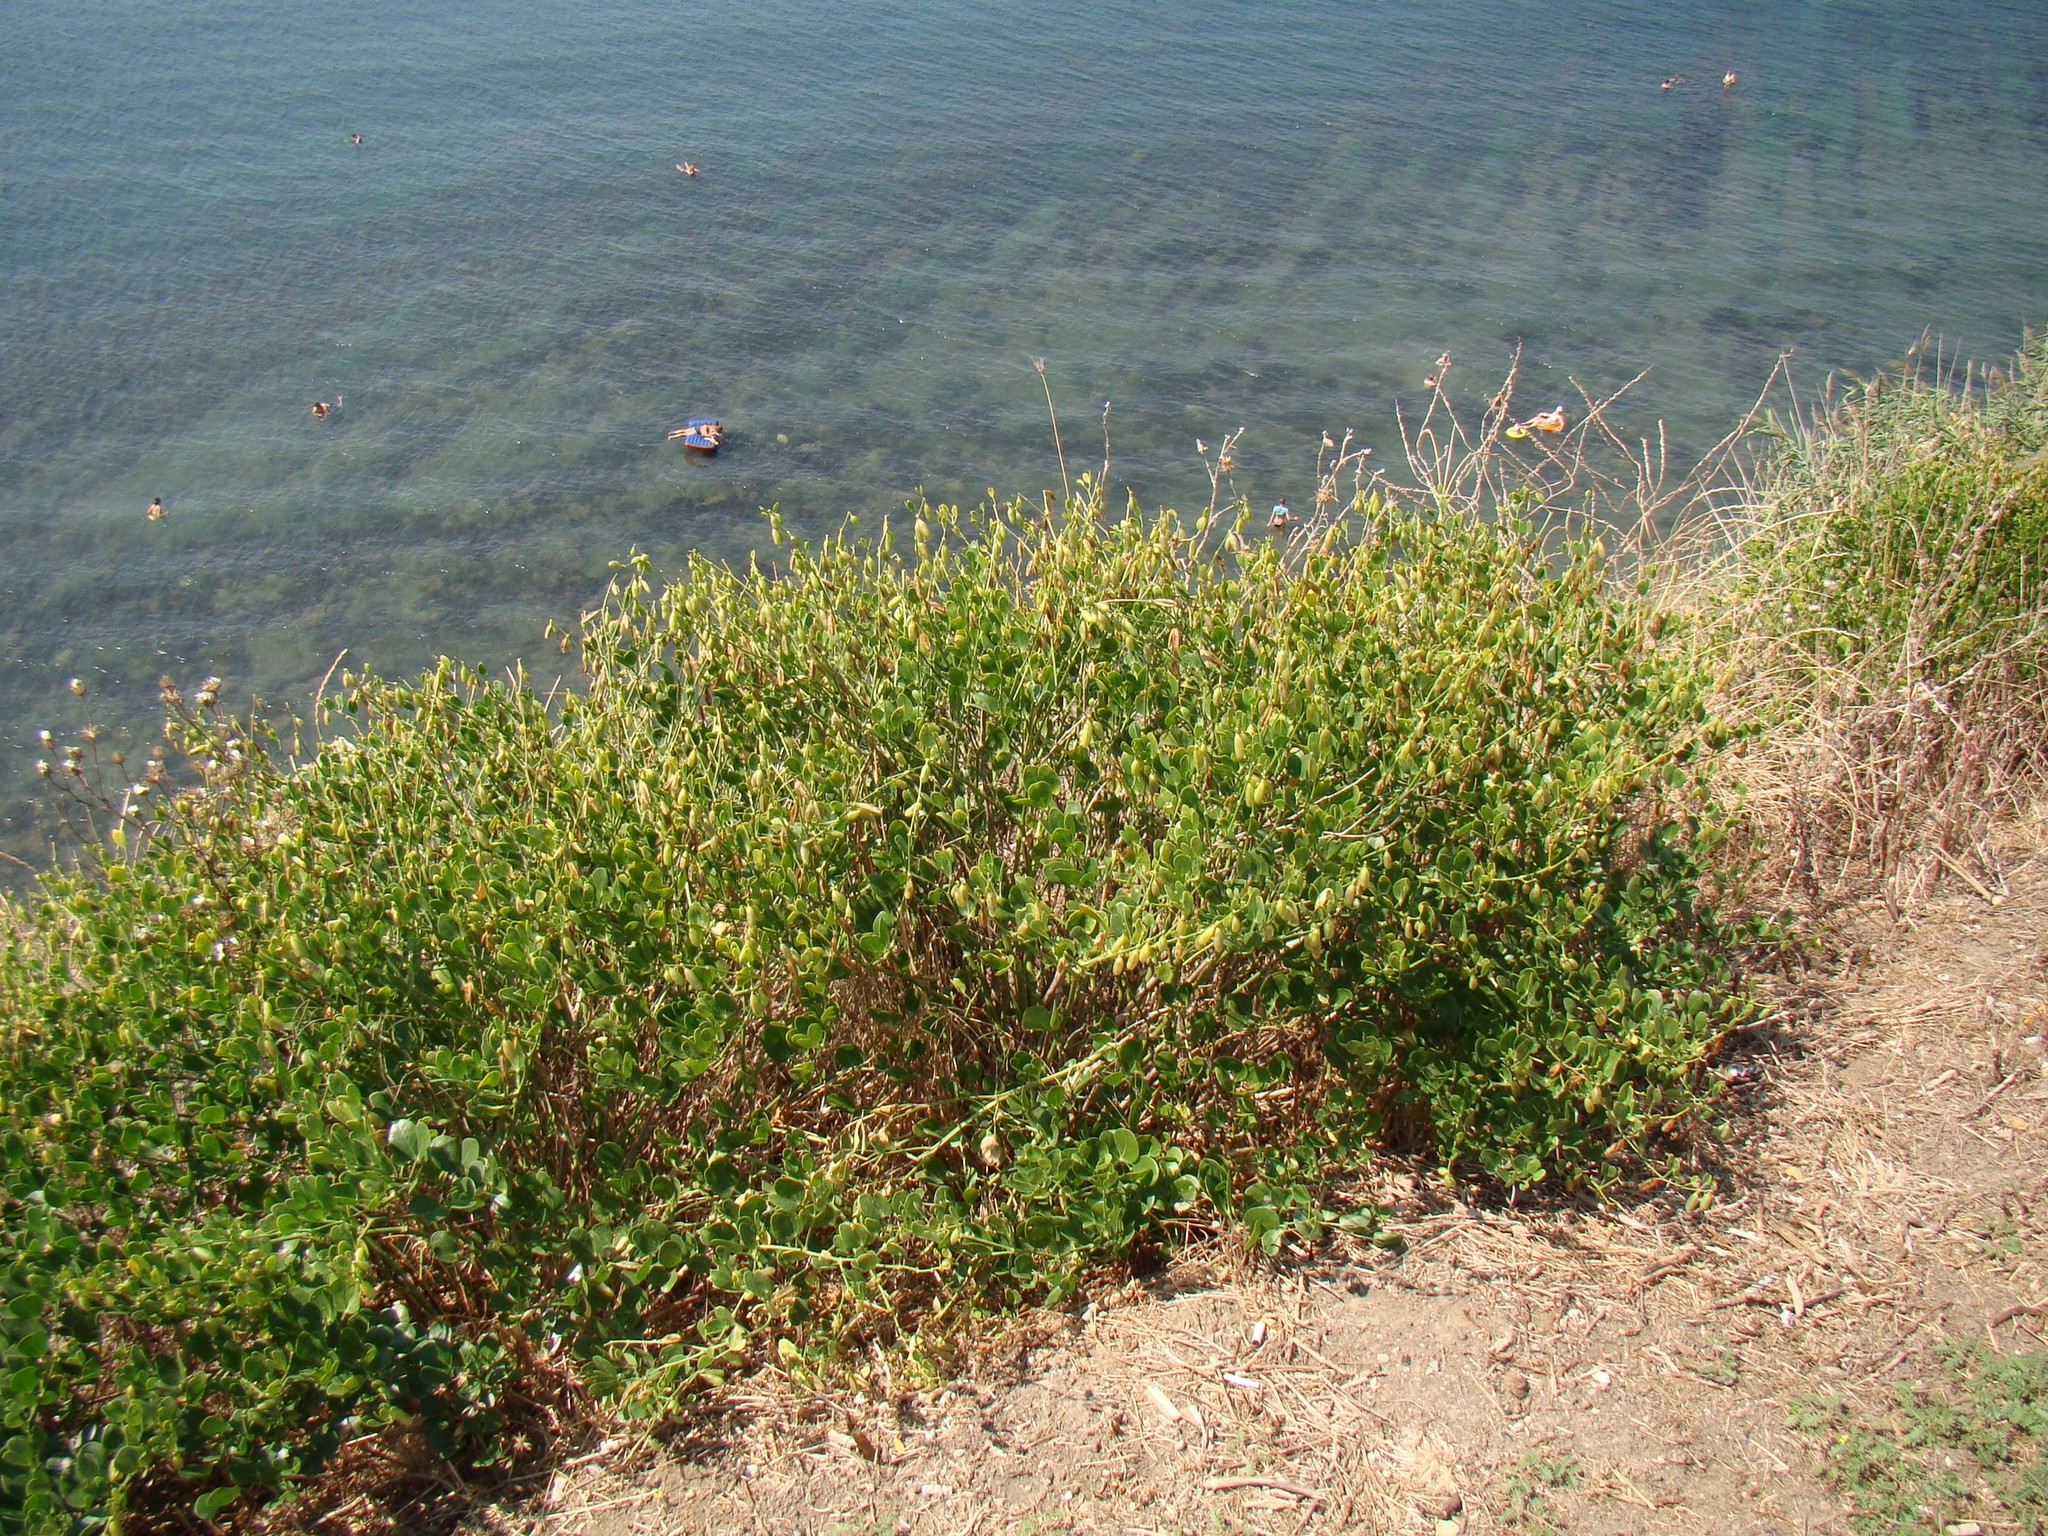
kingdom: Plantae
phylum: Tracheophyta
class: Magnoliopsida
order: Zygophyllales
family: Zygophyllaceae
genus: Zygophyllum
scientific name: Zygophyllum fabago
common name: Syrian beancaper
